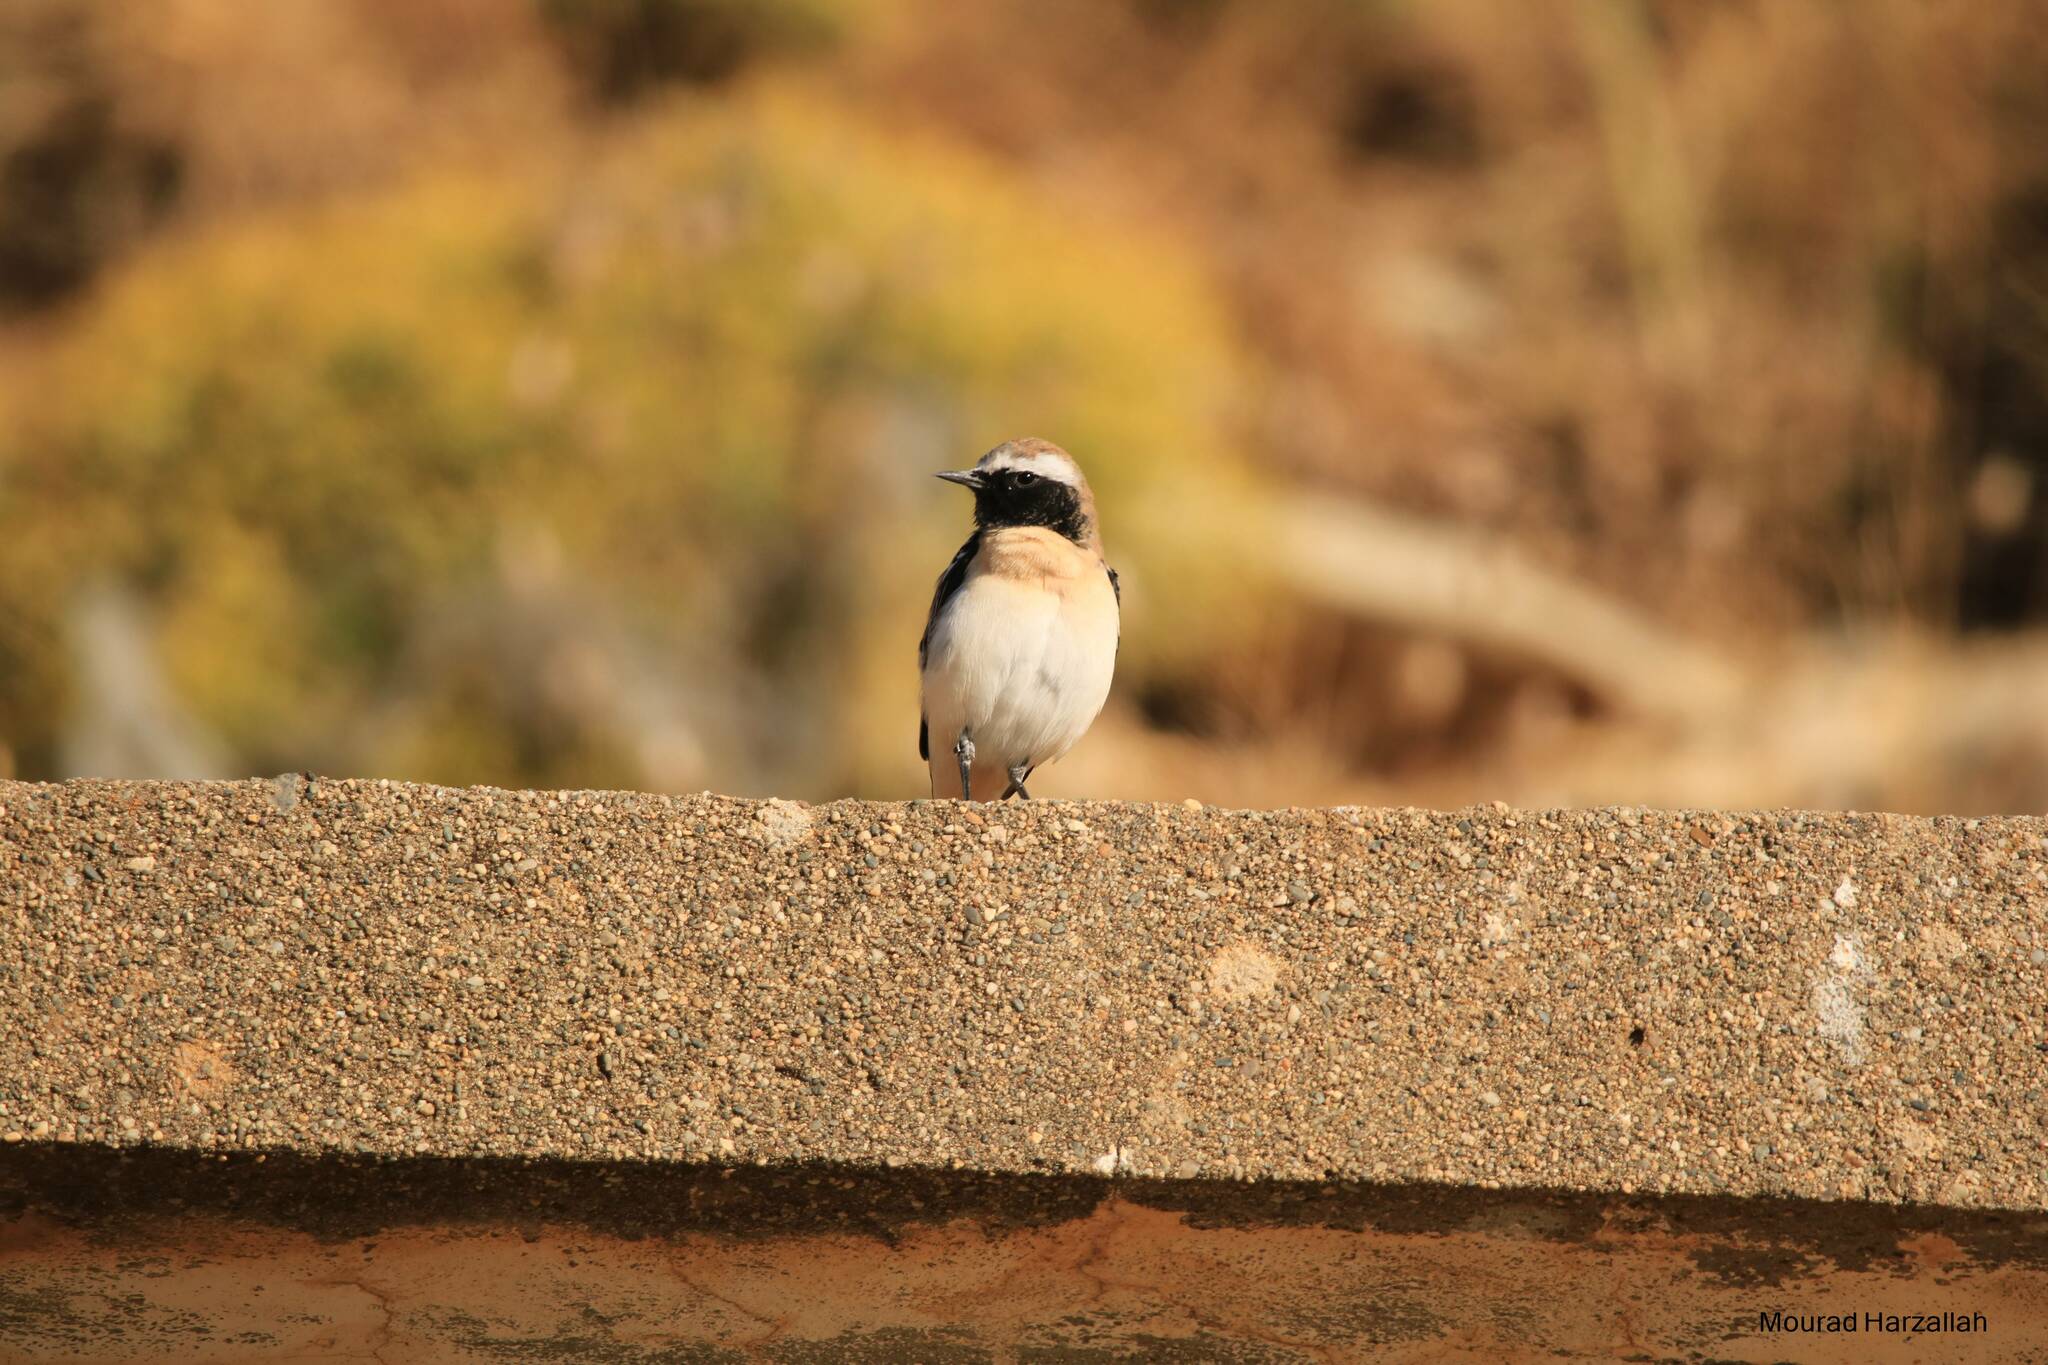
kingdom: Animalia
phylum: Chordata
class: Aves
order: Passeriformes
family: Muscicapidae
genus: Oenanthe
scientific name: Oenanthe oenanthe
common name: Northern wheatear
